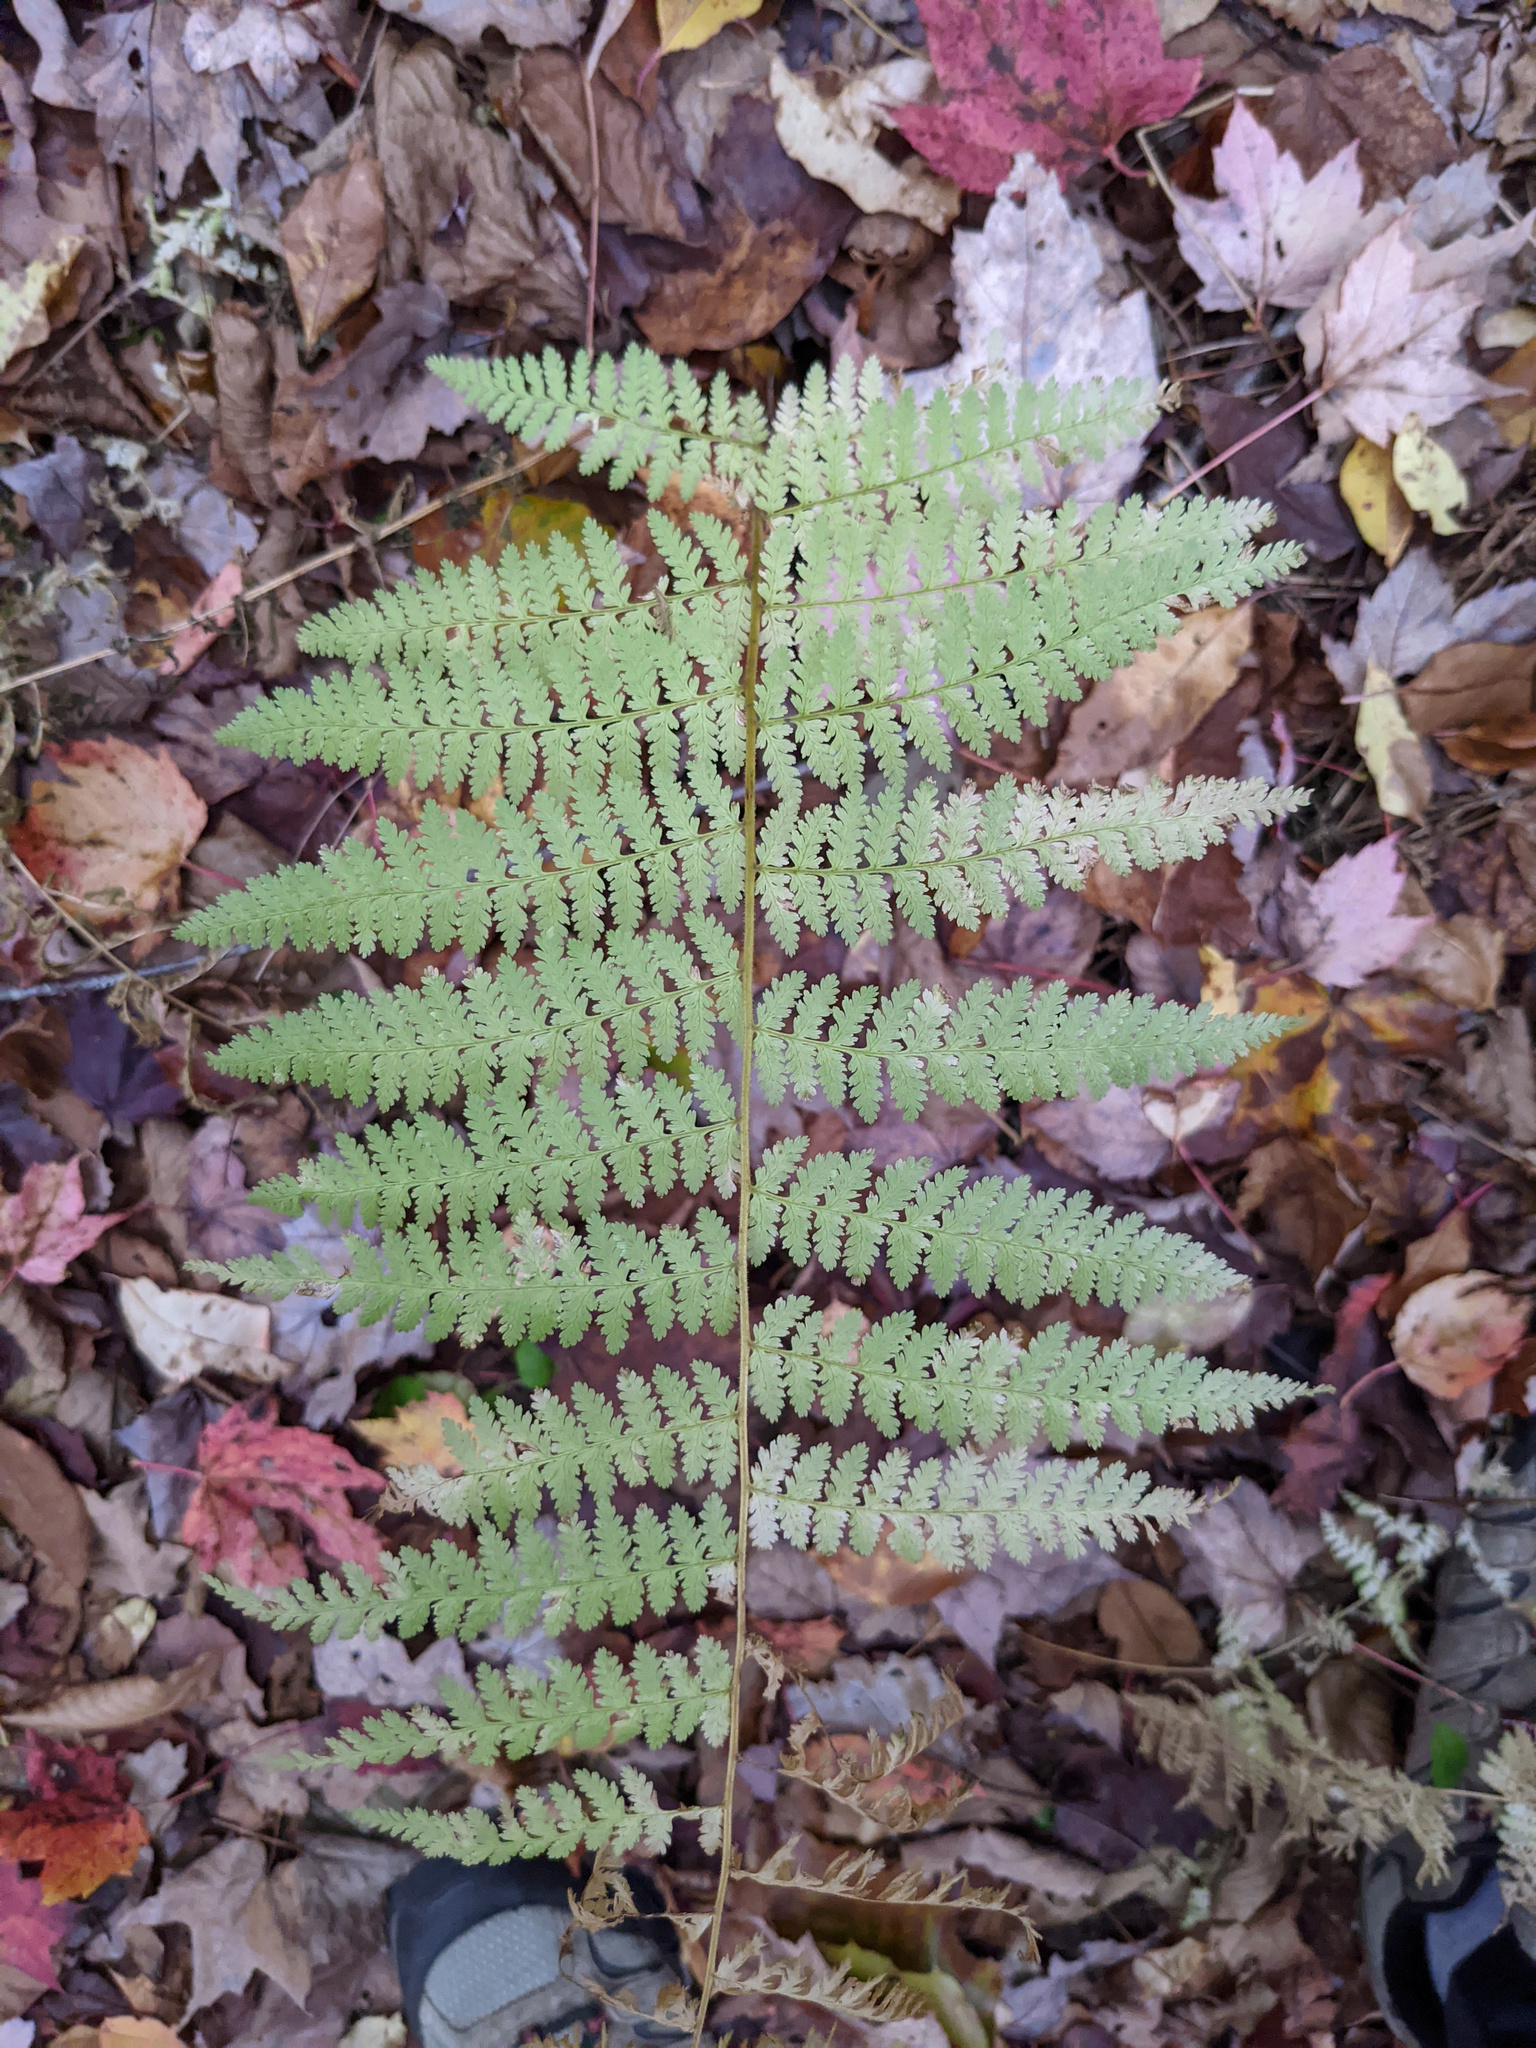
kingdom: Plantae
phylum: Tracheophyta
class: Polypodiopsida
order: Polypodiales
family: Dennstaedtiaceae
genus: Sitobolium
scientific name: Sitobolium punctilobum
